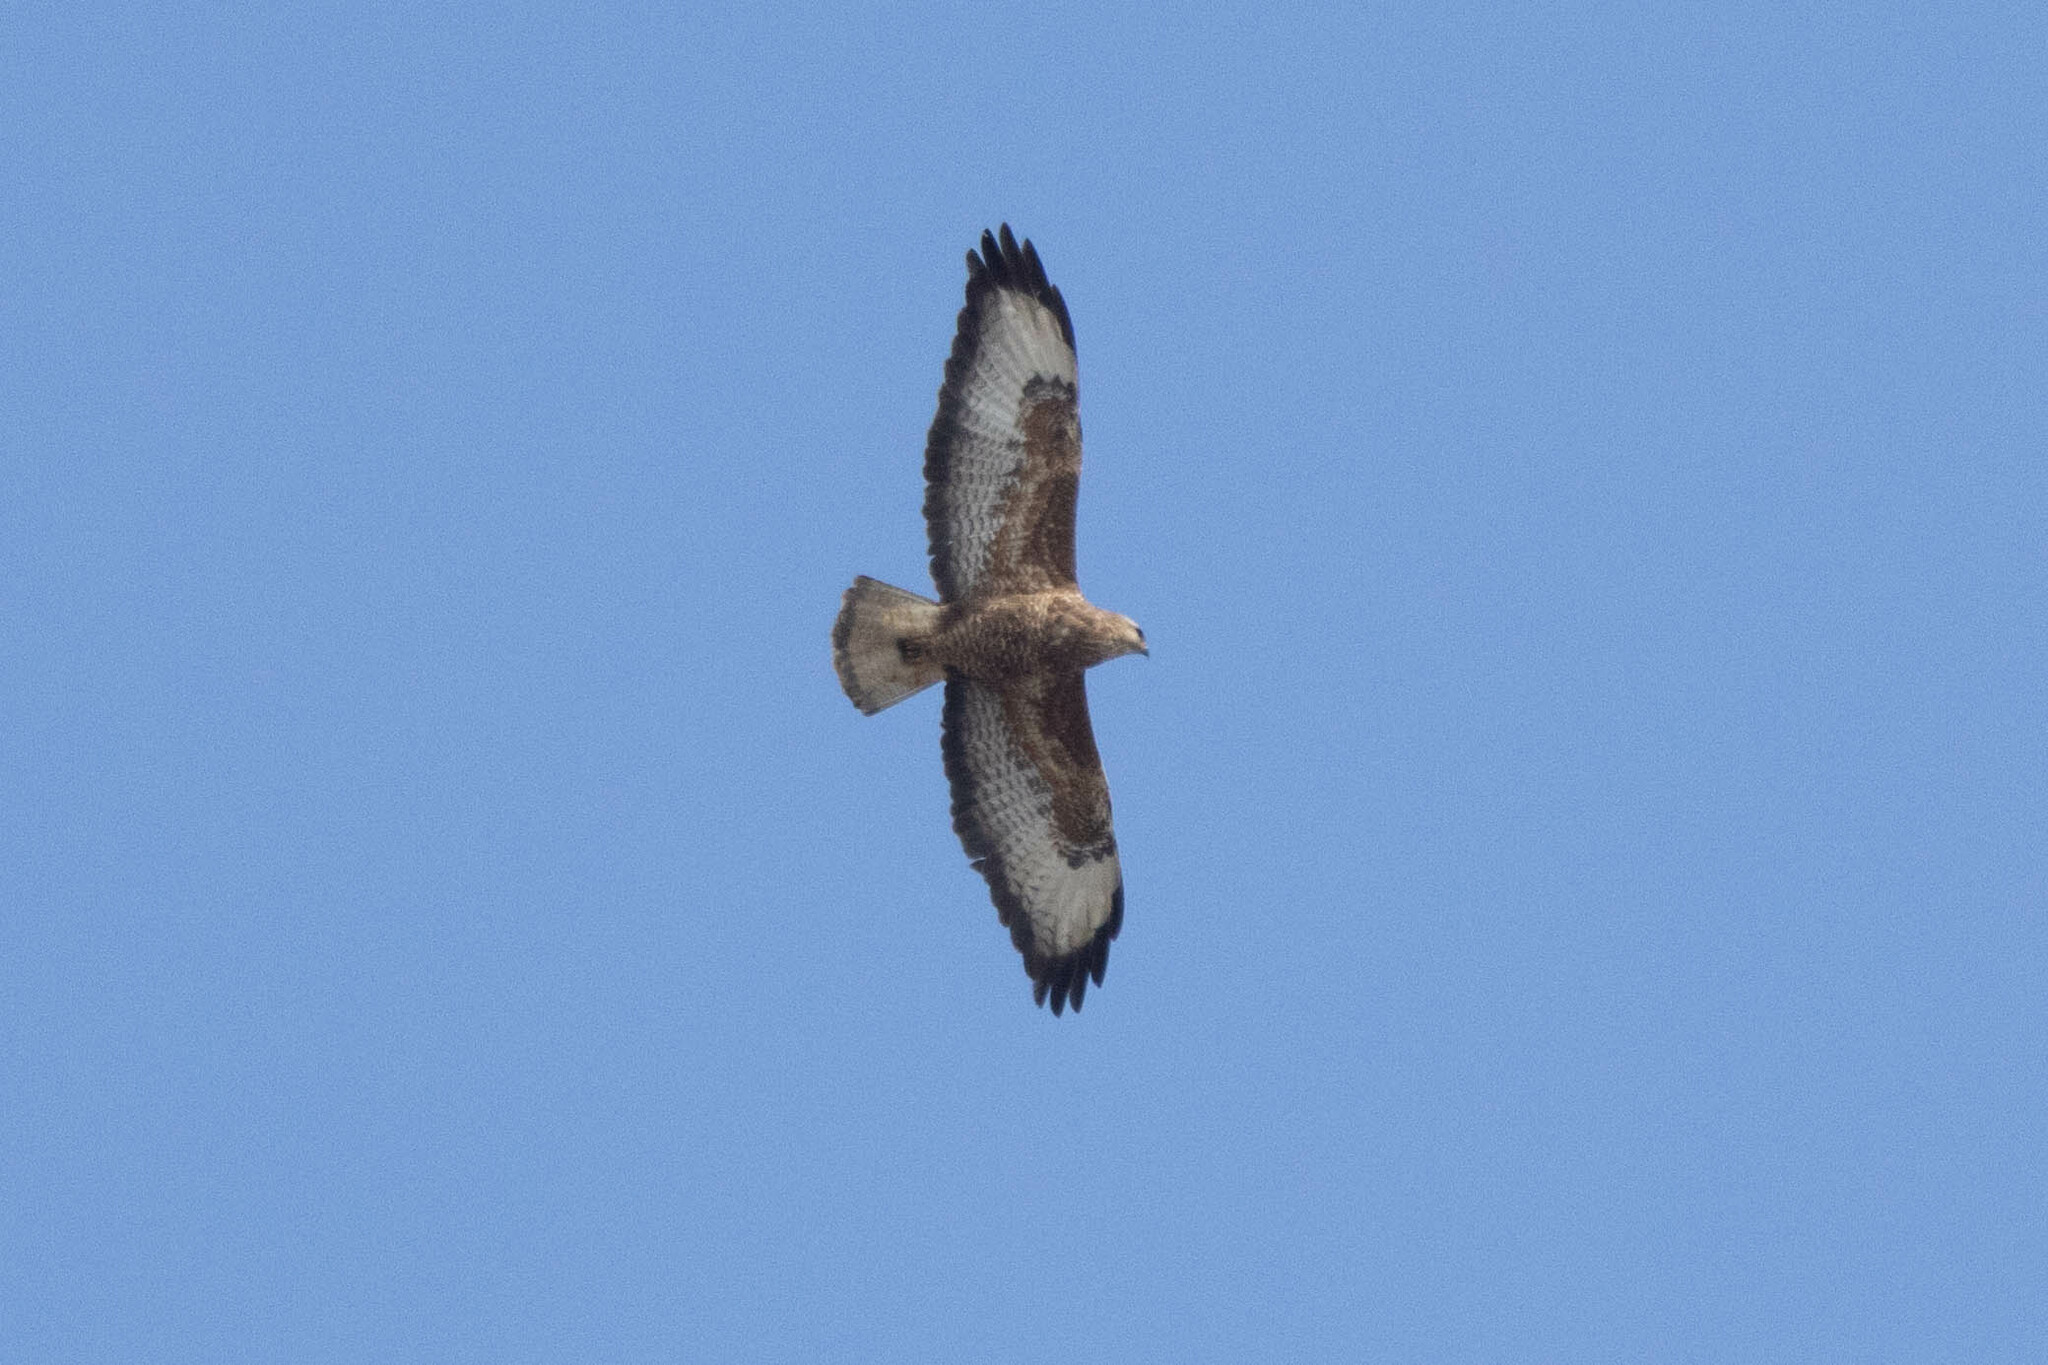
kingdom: Animalia
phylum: Chordata
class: Aves
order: Accipitriformes
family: Accipitridae
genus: Buteo
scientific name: Buteo buteo
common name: Common buzzard
